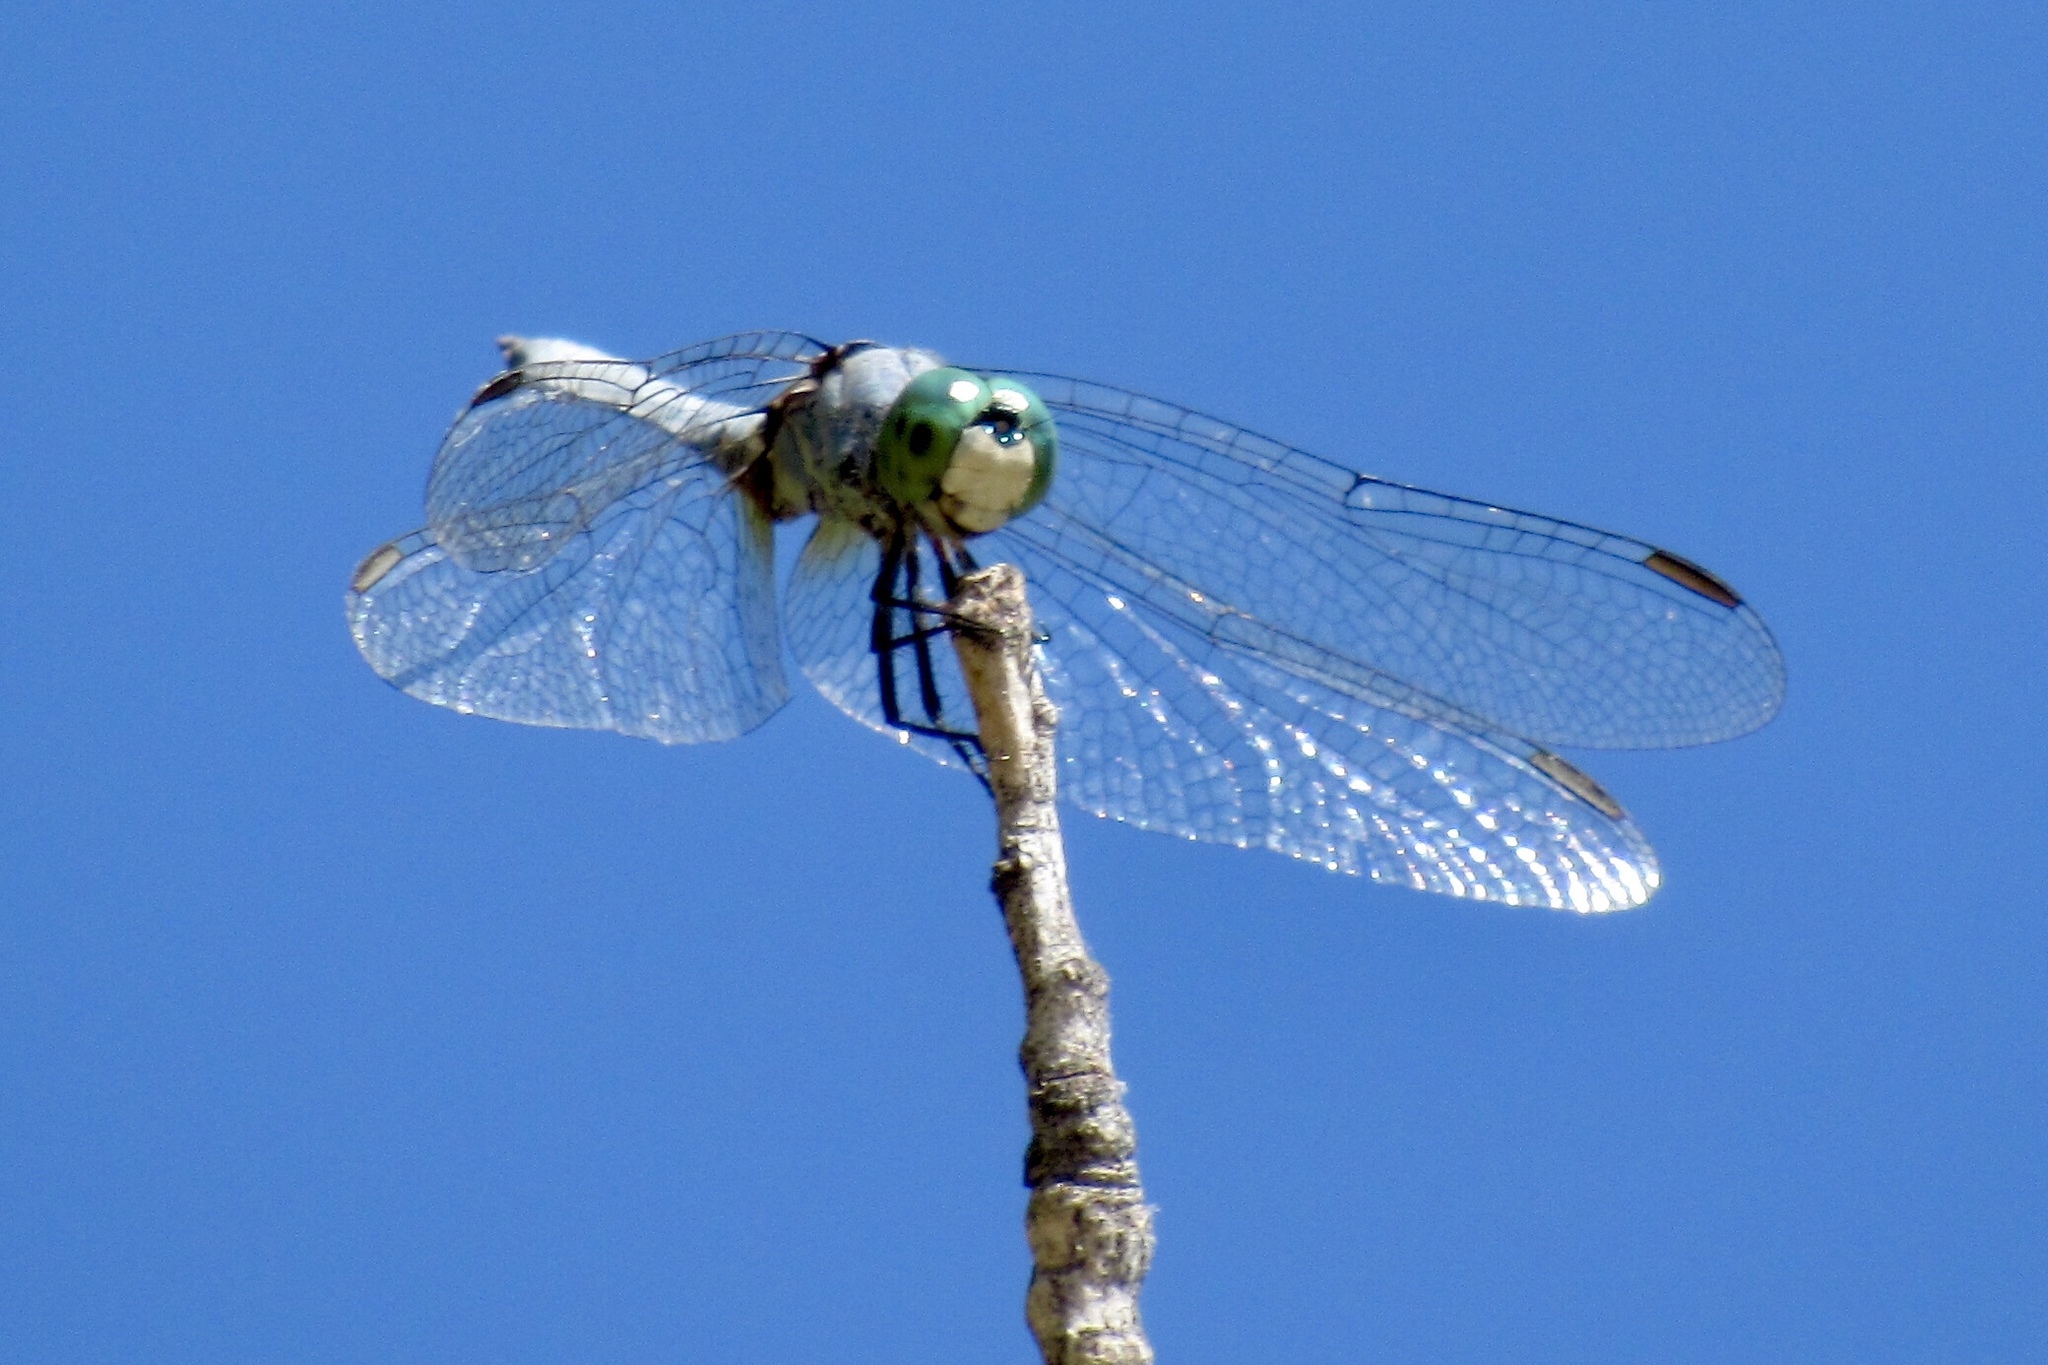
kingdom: Animalia
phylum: Arthropoda
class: Insecta
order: Odonata
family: Libellulidae
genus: Pachydiplax
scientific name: Pachydiplax longipennis
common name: Blue dasher
